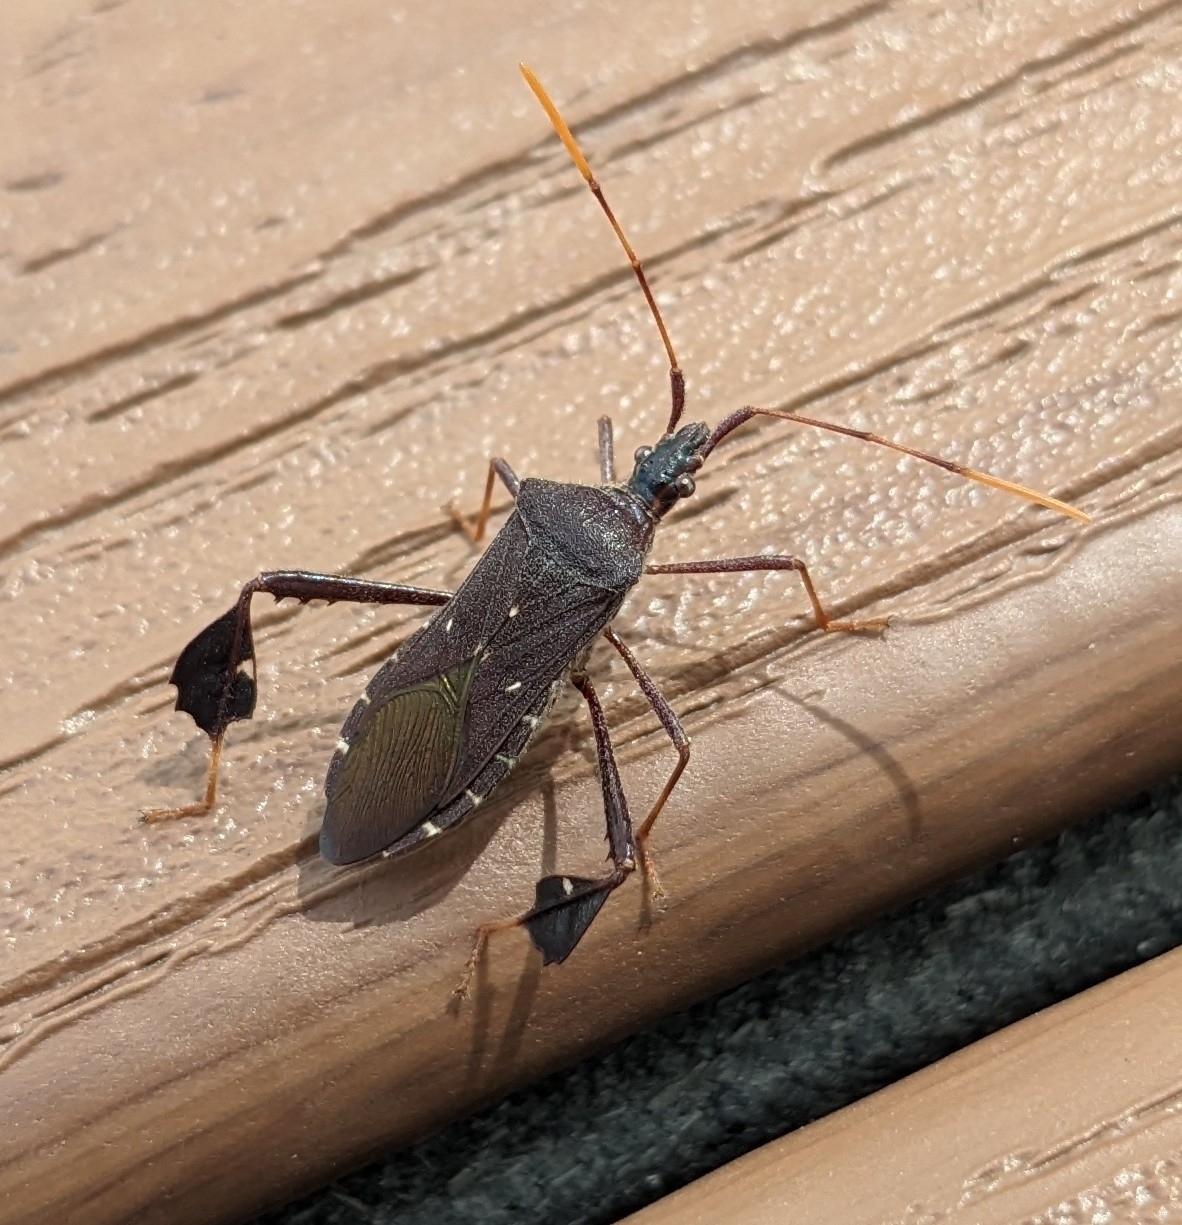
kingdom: Animalia
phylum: Arthropoda
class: Insecta
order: Hemiptera
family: Coreidae
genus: Leptoglossus
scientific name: Leptoglossus oppositus
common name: Northern leaf-footed bug
